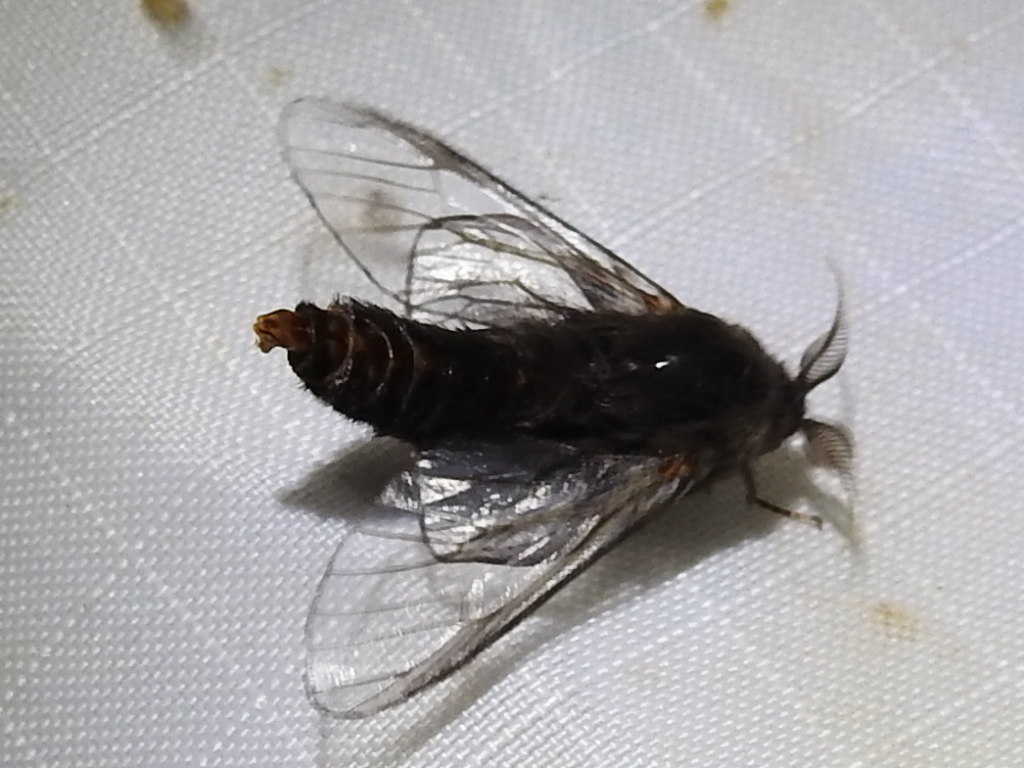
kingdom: Animalia
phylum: Arthropoda
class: Insecta
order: Lepidoptera
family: Psychidae
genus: Thyridopteryx
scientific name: Thyridopteryx ephemeraeformis
